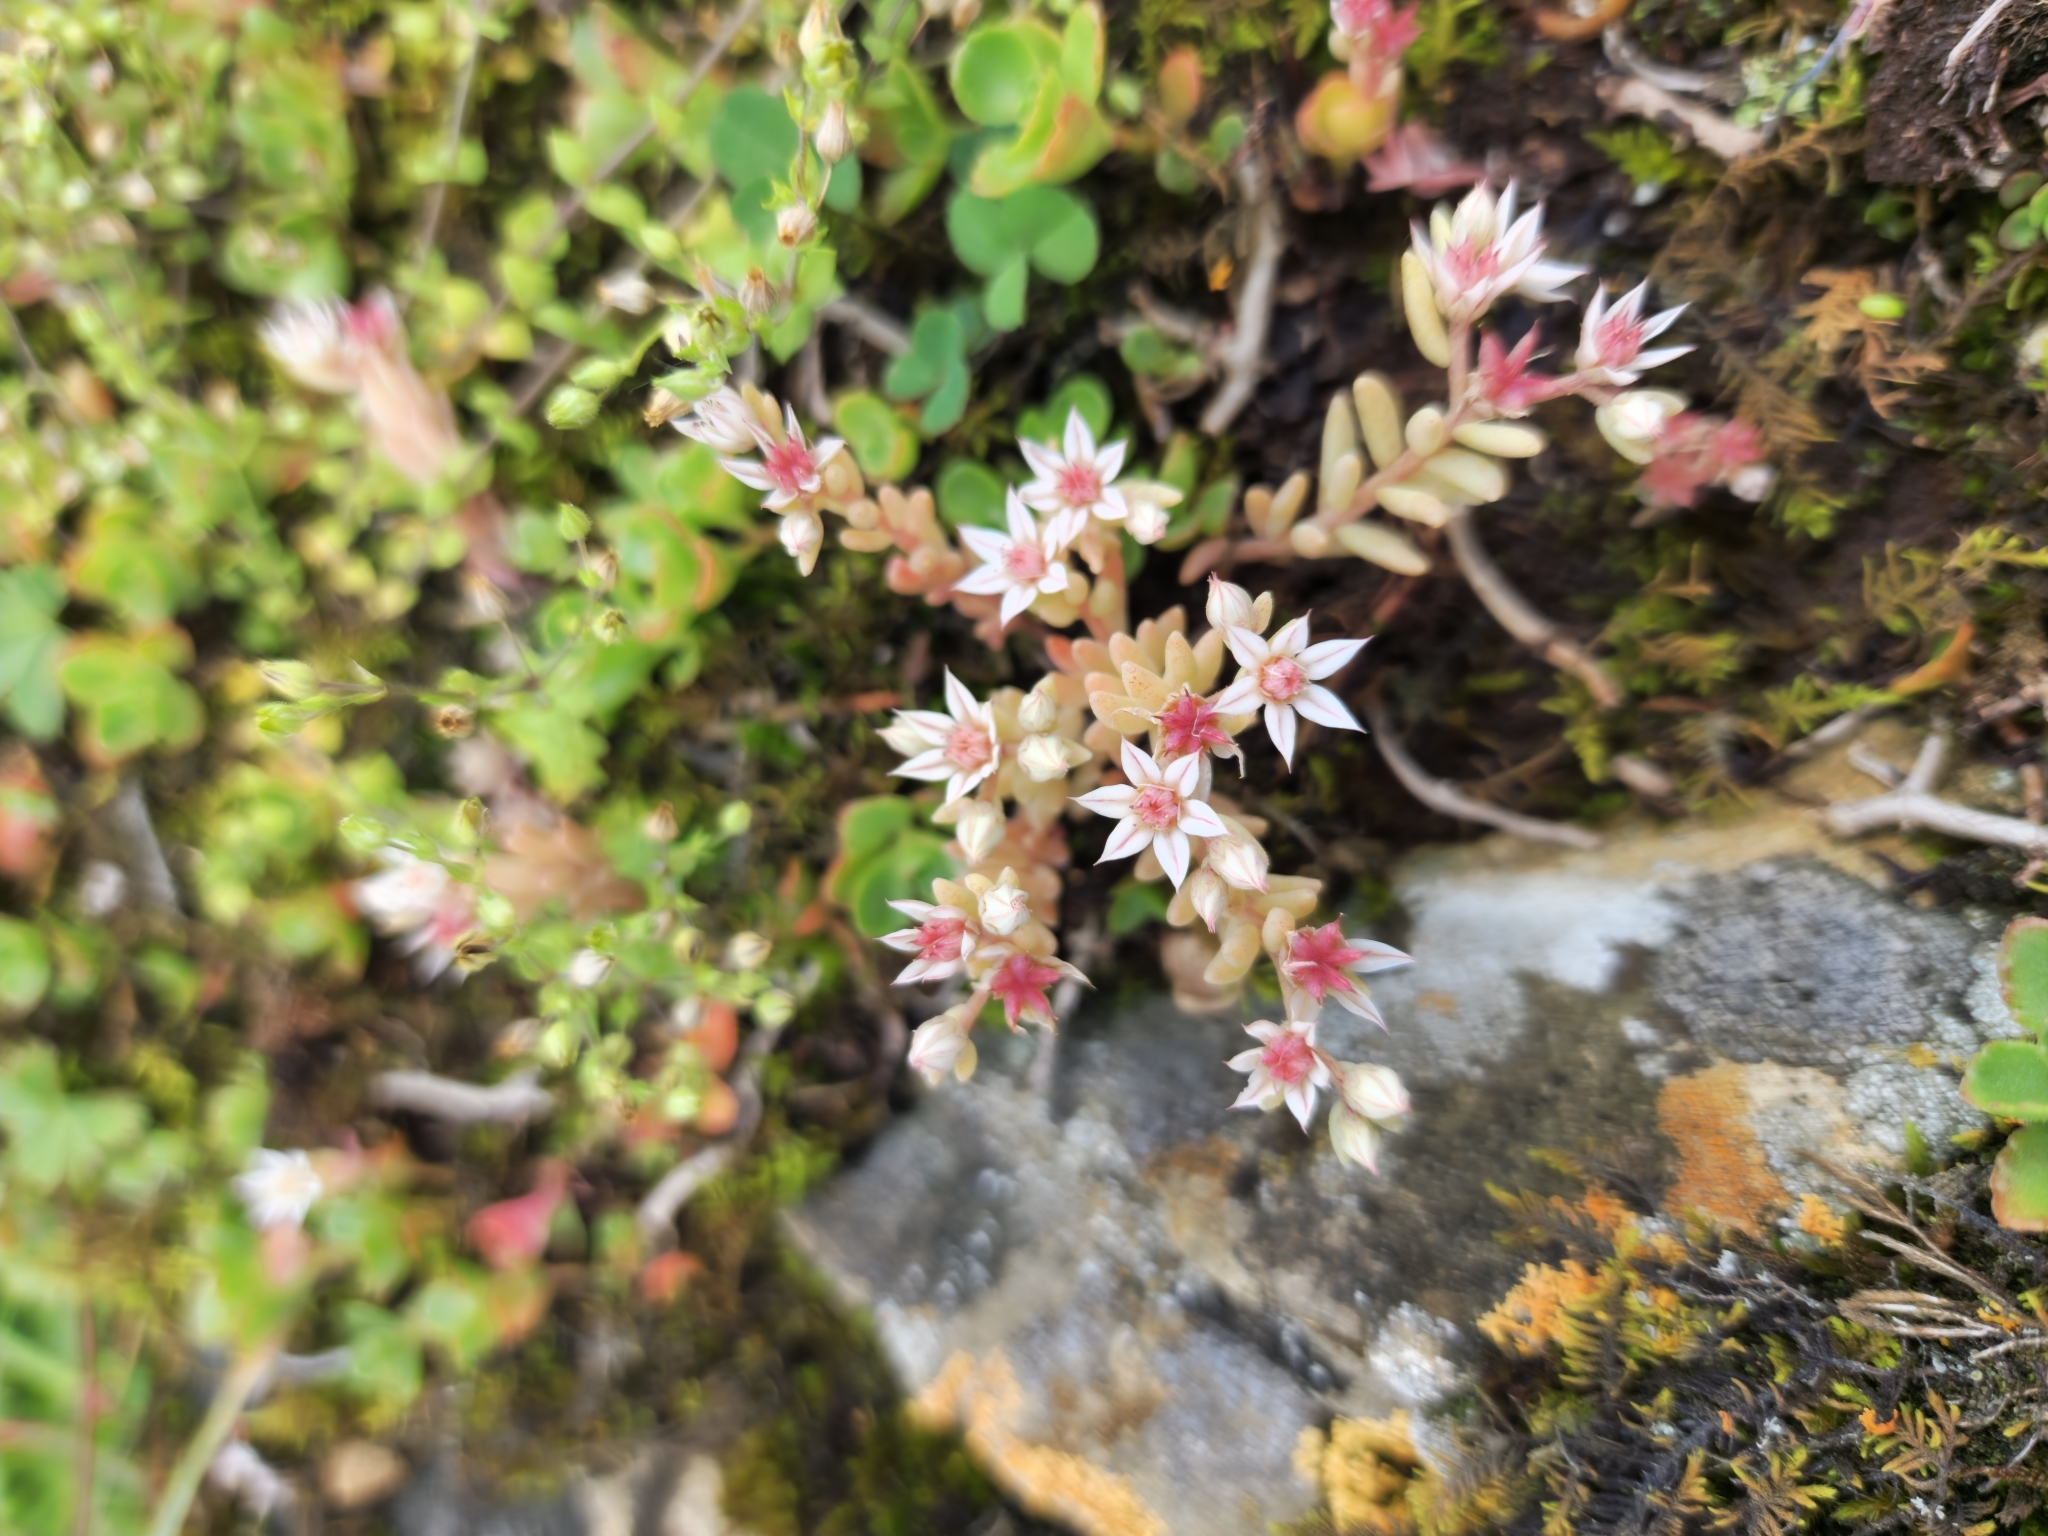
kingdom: Plantae
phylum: Tracheophyta
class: Magnoliopsida
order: Saxifragales
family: Crassulaceae
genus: Sedum
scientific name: Sedum hispanicum
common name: Spanish stonecrop
